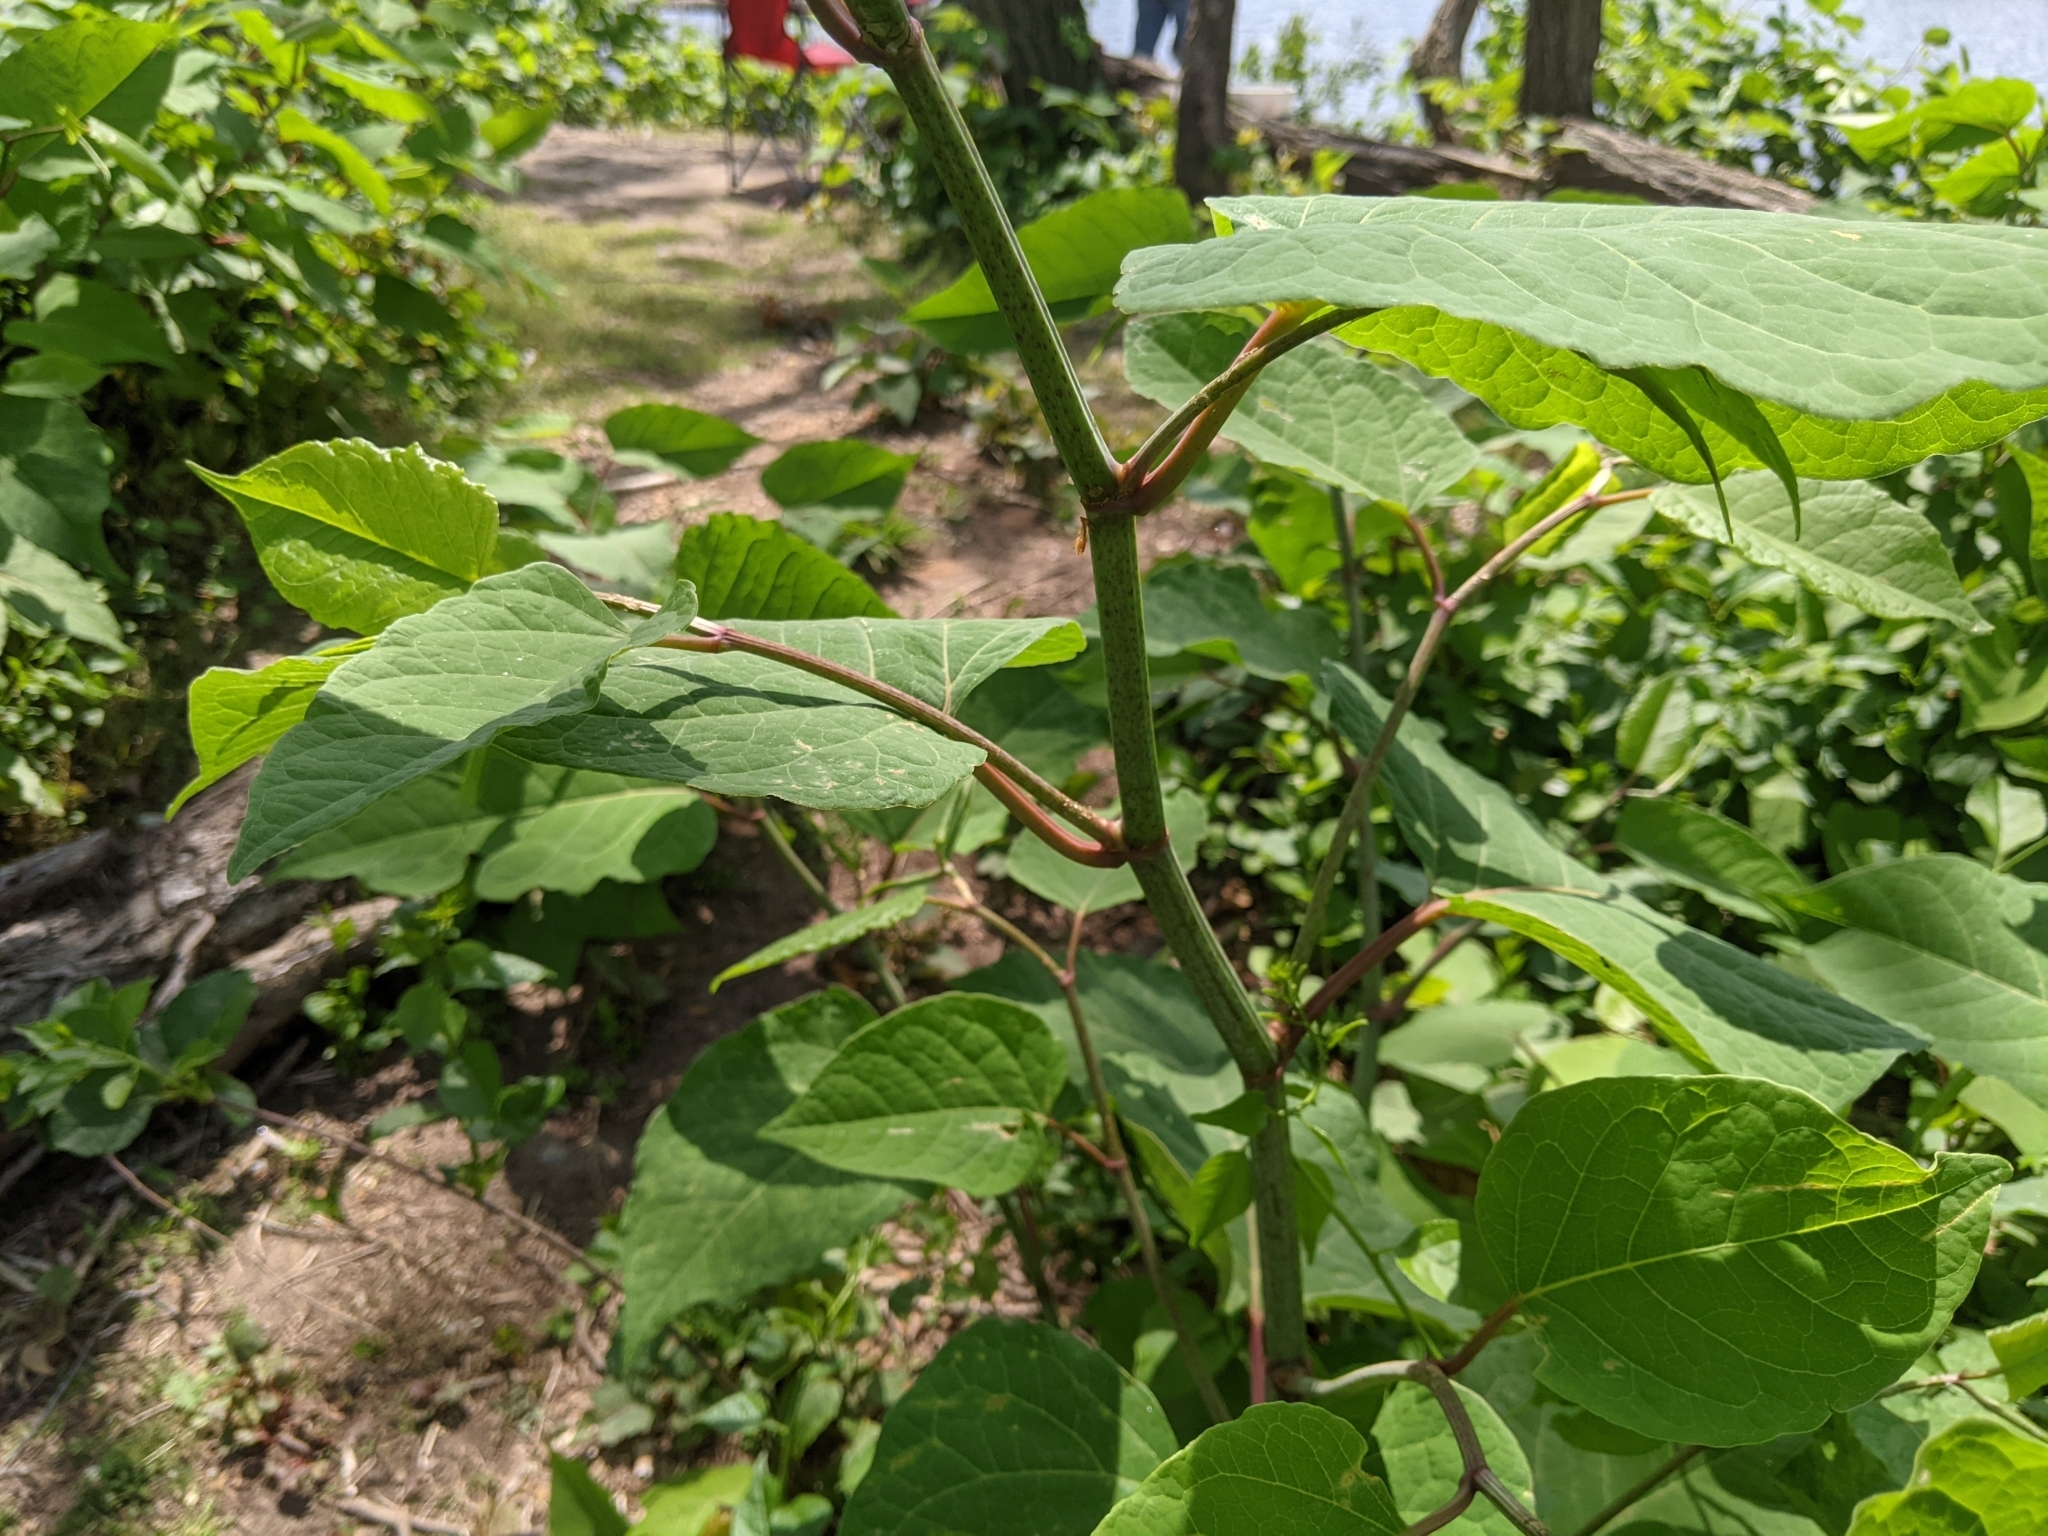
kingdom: Plantae
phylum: Tracheophyta
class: Magnoliopsida
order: Caryophyllales
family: Polygonaceae
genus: Reynoutria
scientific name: Reynoutria japonica
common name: Japanese knotweed
